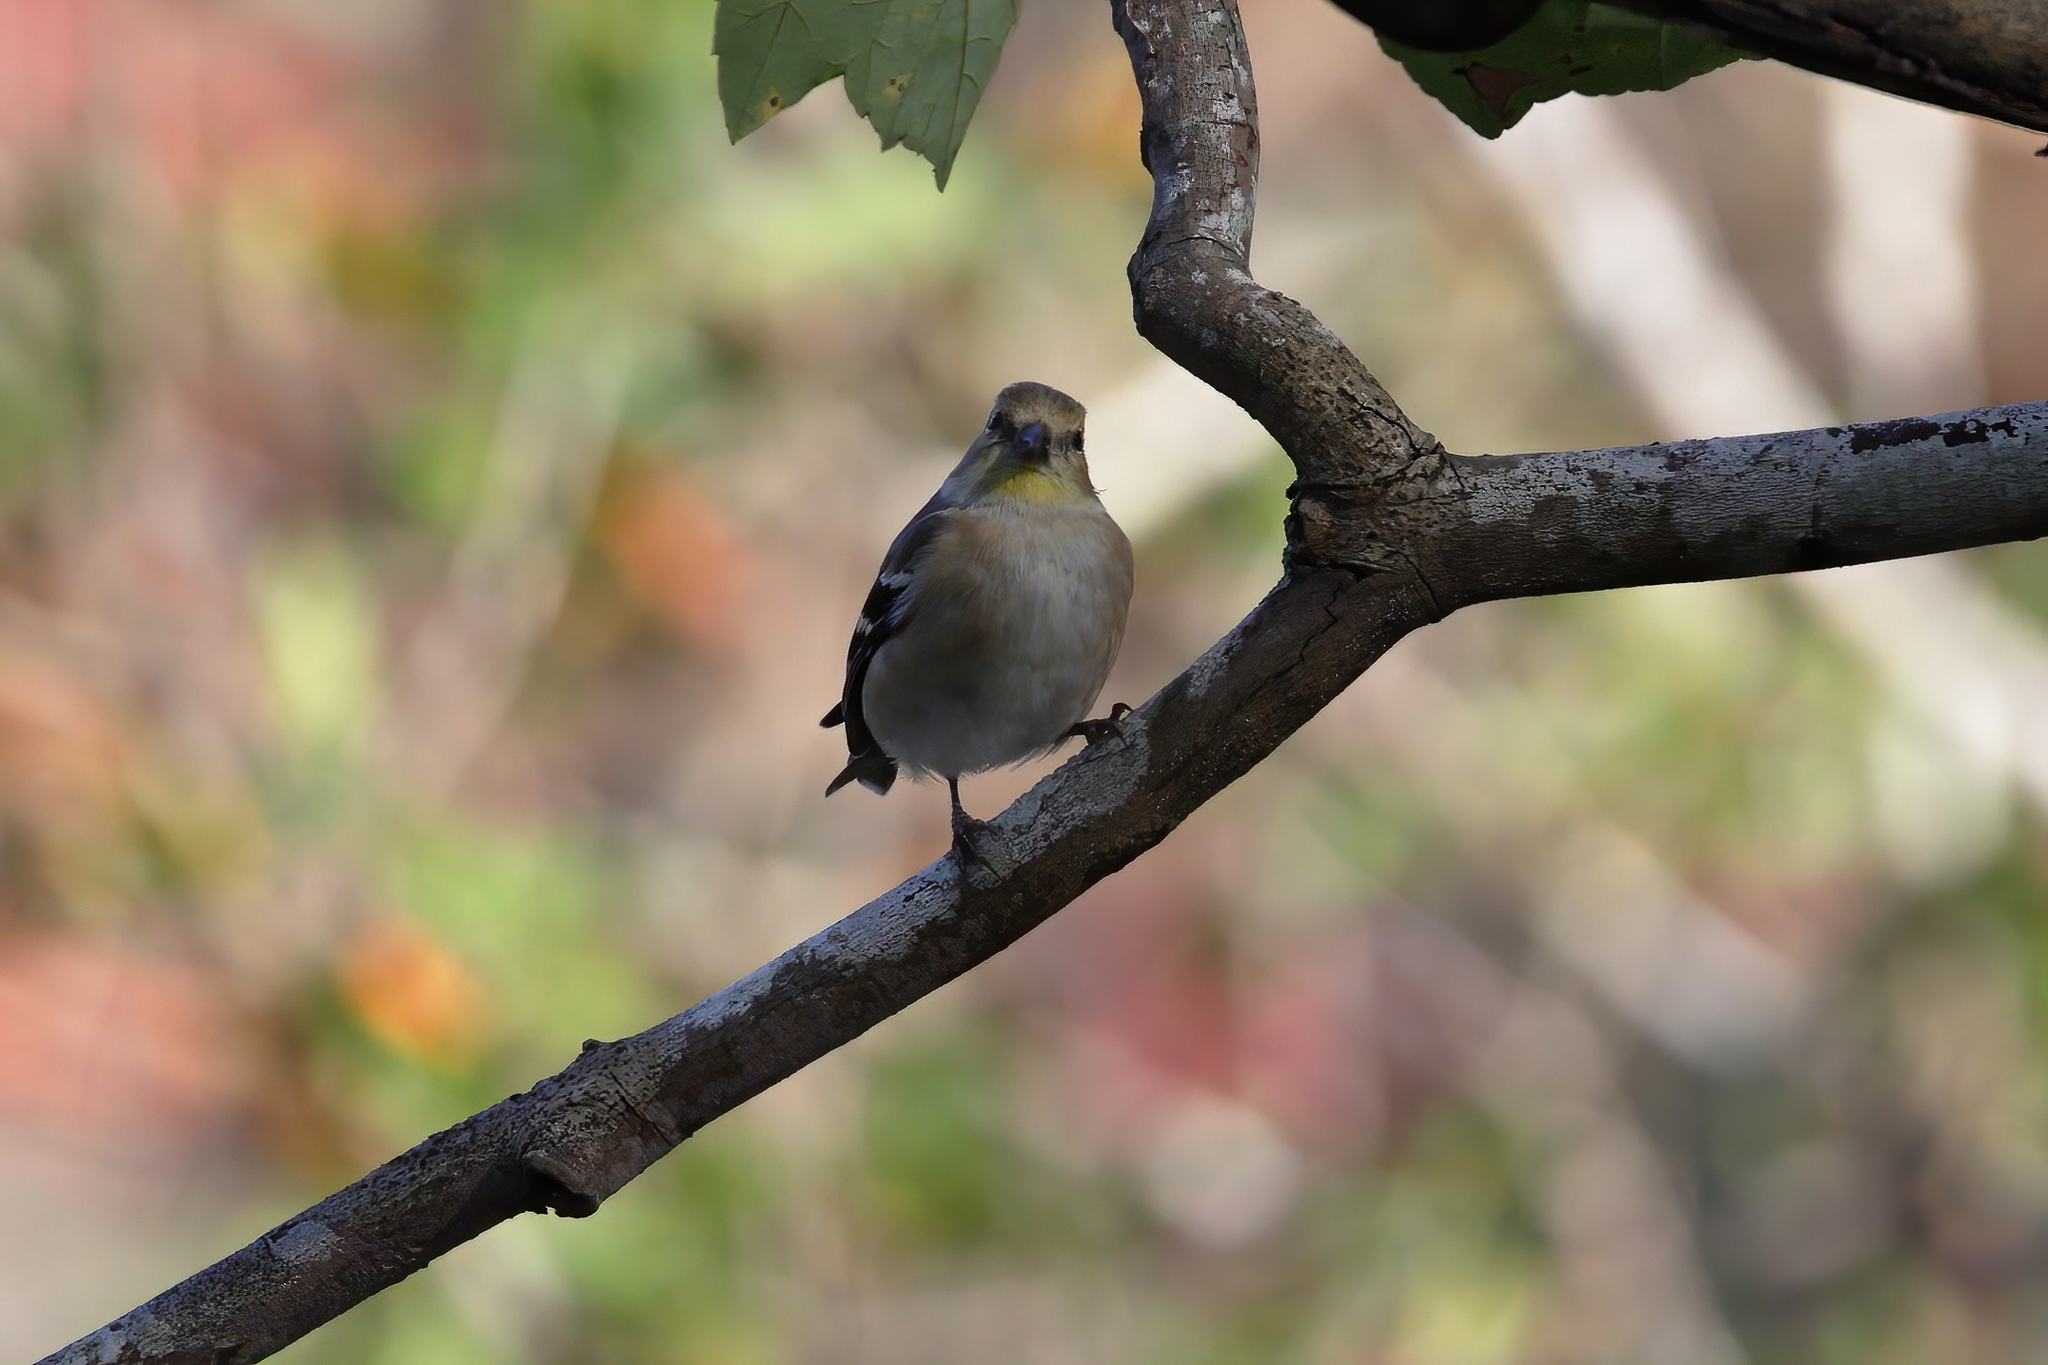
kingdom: Animalia
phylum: Chordata
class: Aves
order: Passeriformes
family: Fringillidae
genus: Spinus
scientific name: Spinus tristis
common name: American goldfinch
